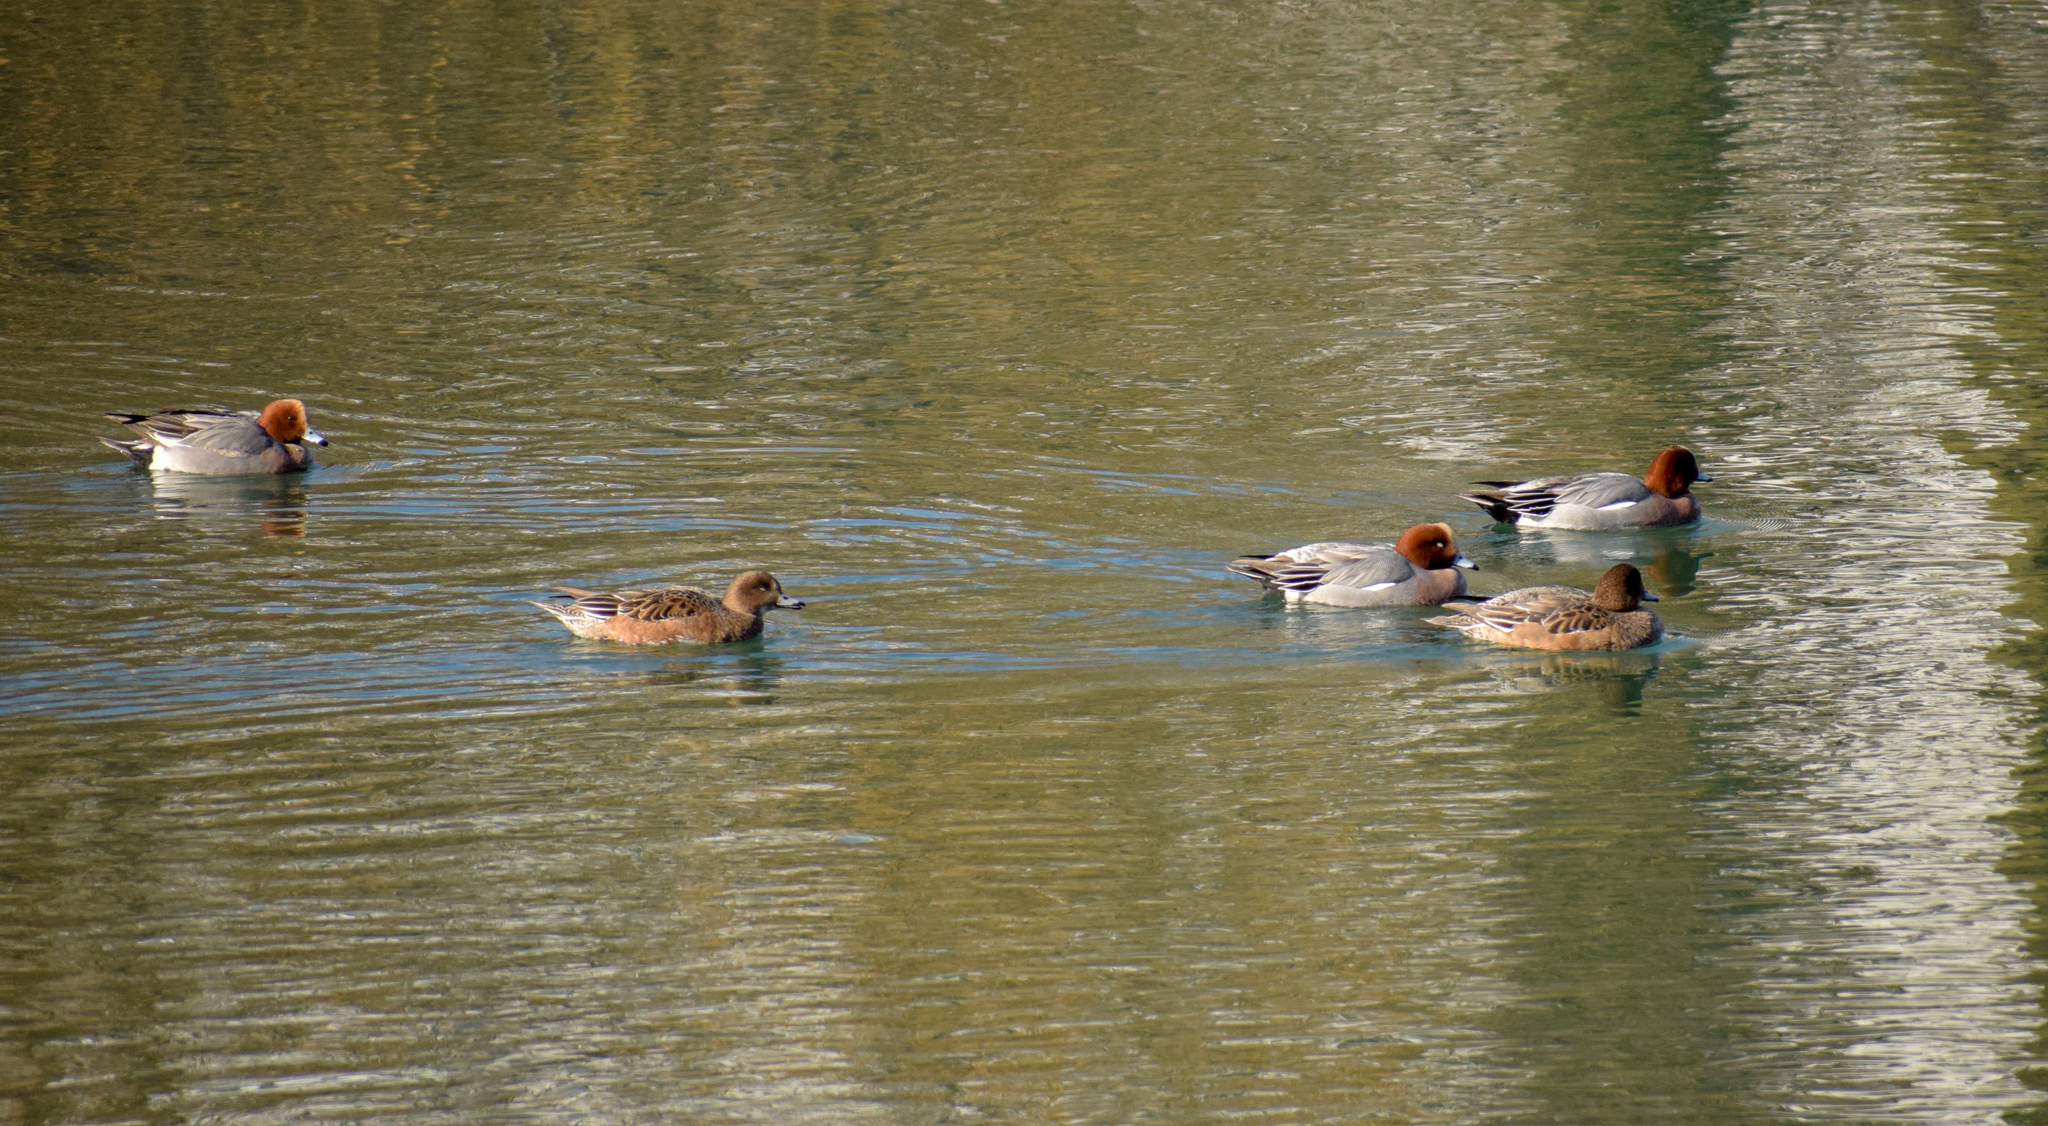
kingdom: Animalia
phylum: Chordata
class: Aves
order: Anseriformes
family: Anatidae
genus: Mareca
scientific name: Mareca penelope
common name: Eurasian wigeon
